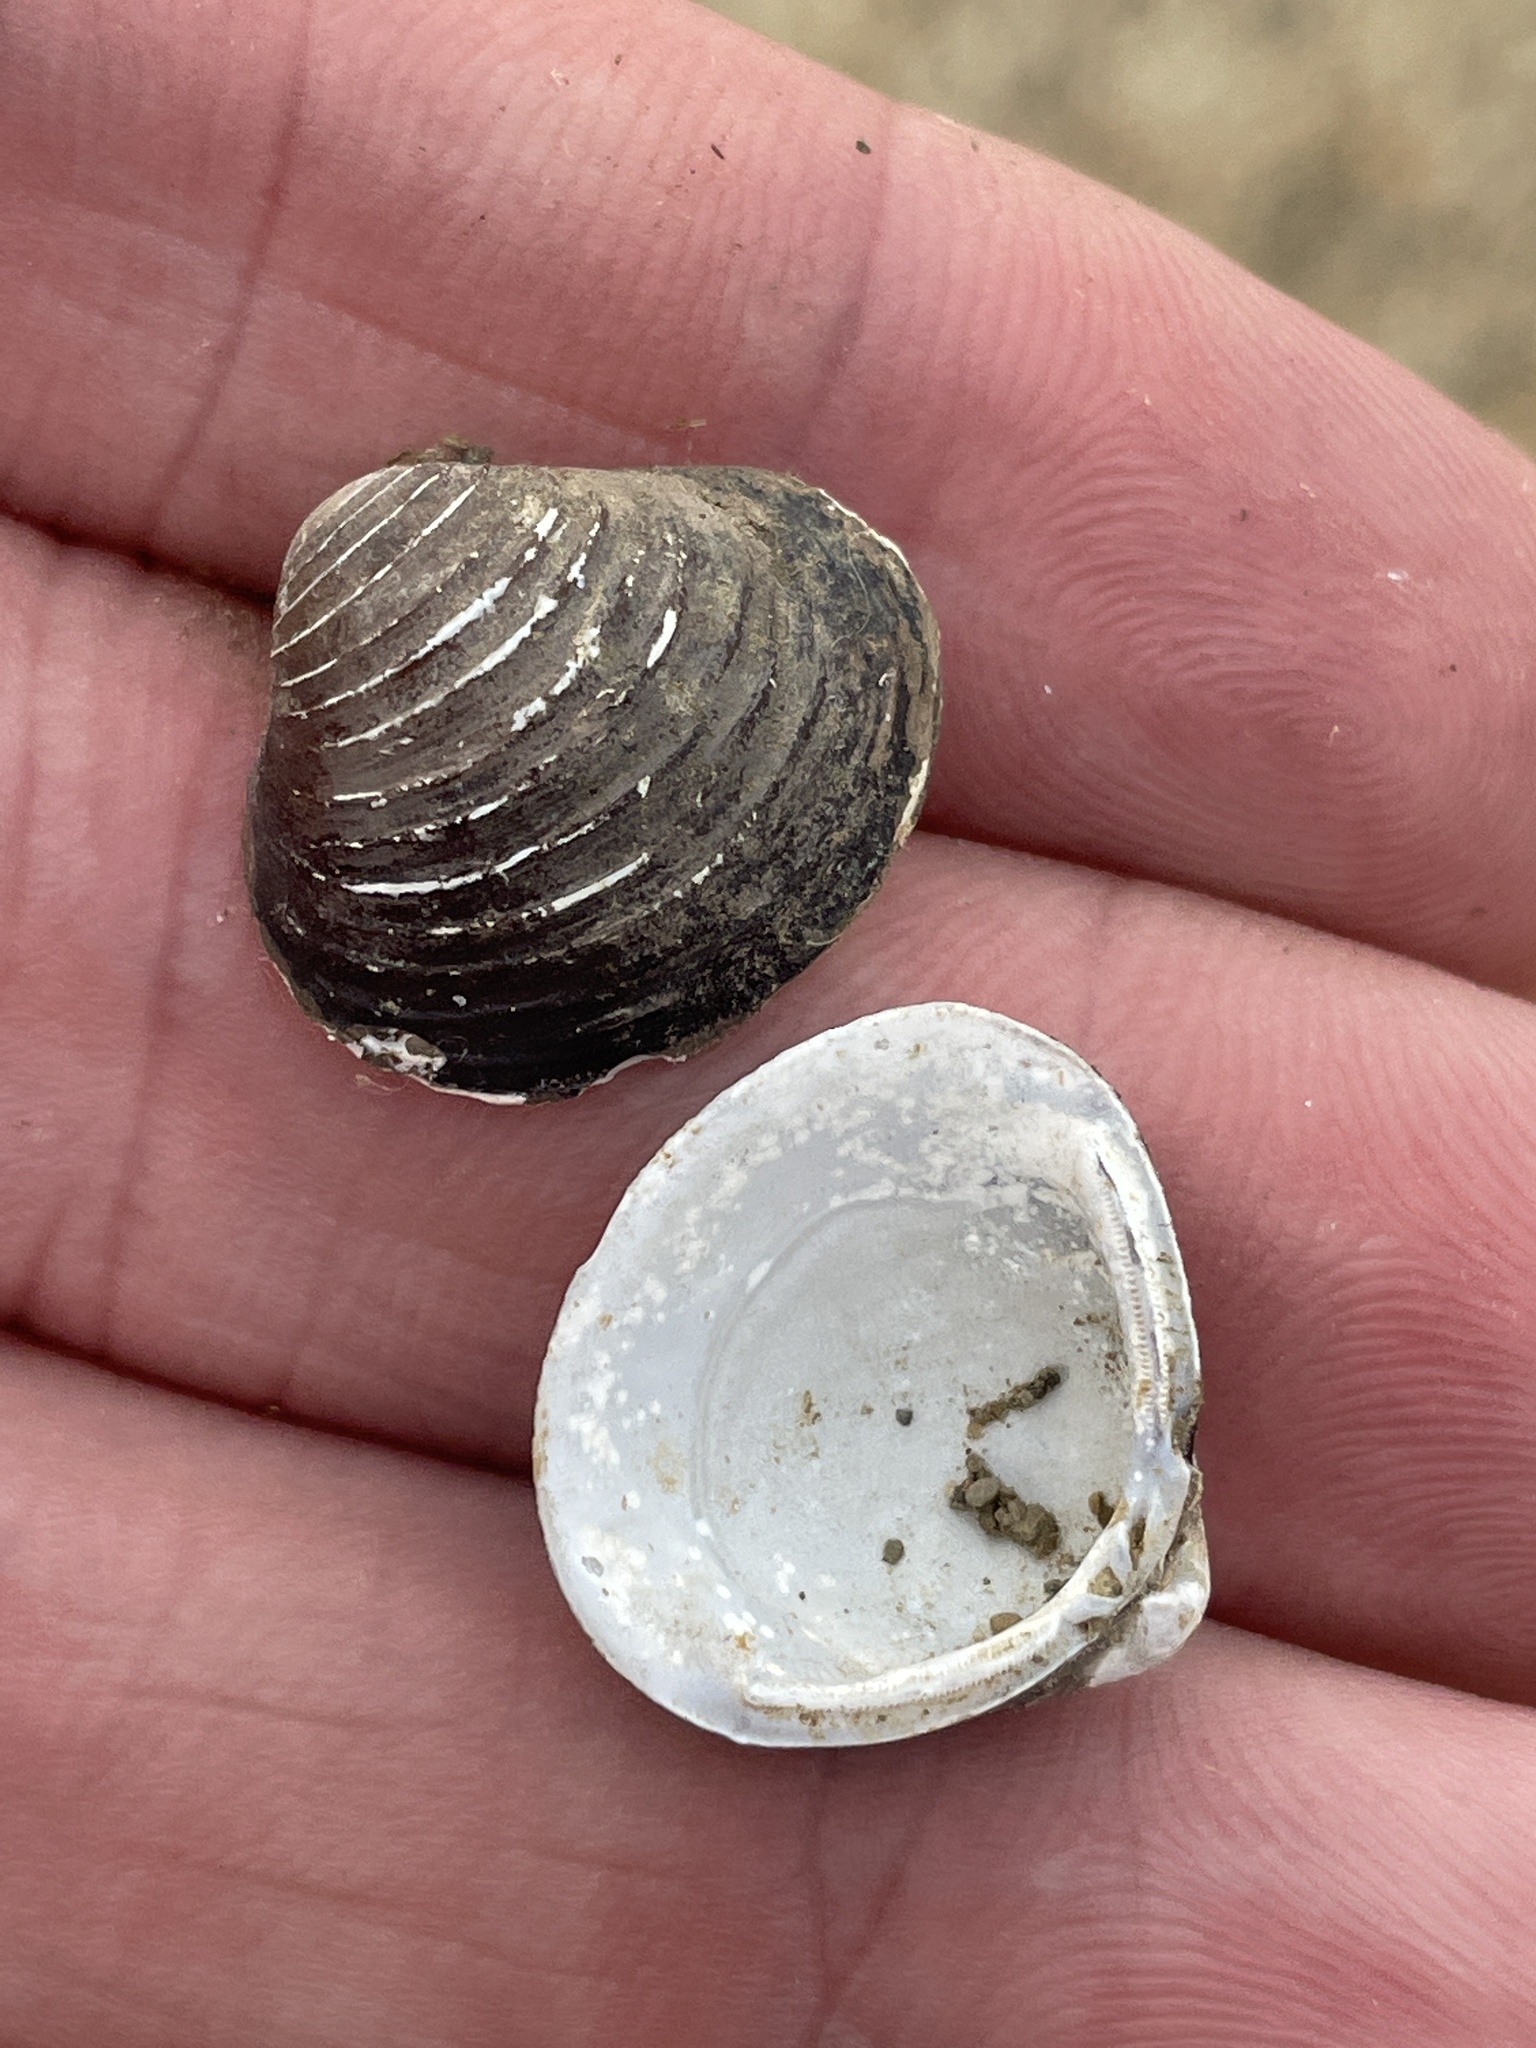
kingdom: Animalia
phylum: Mollusca
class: Bivalvia
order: Venerida
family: Cyrenidae
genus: Corbicula
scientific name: Corbicula fluminea
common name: Asian clam
